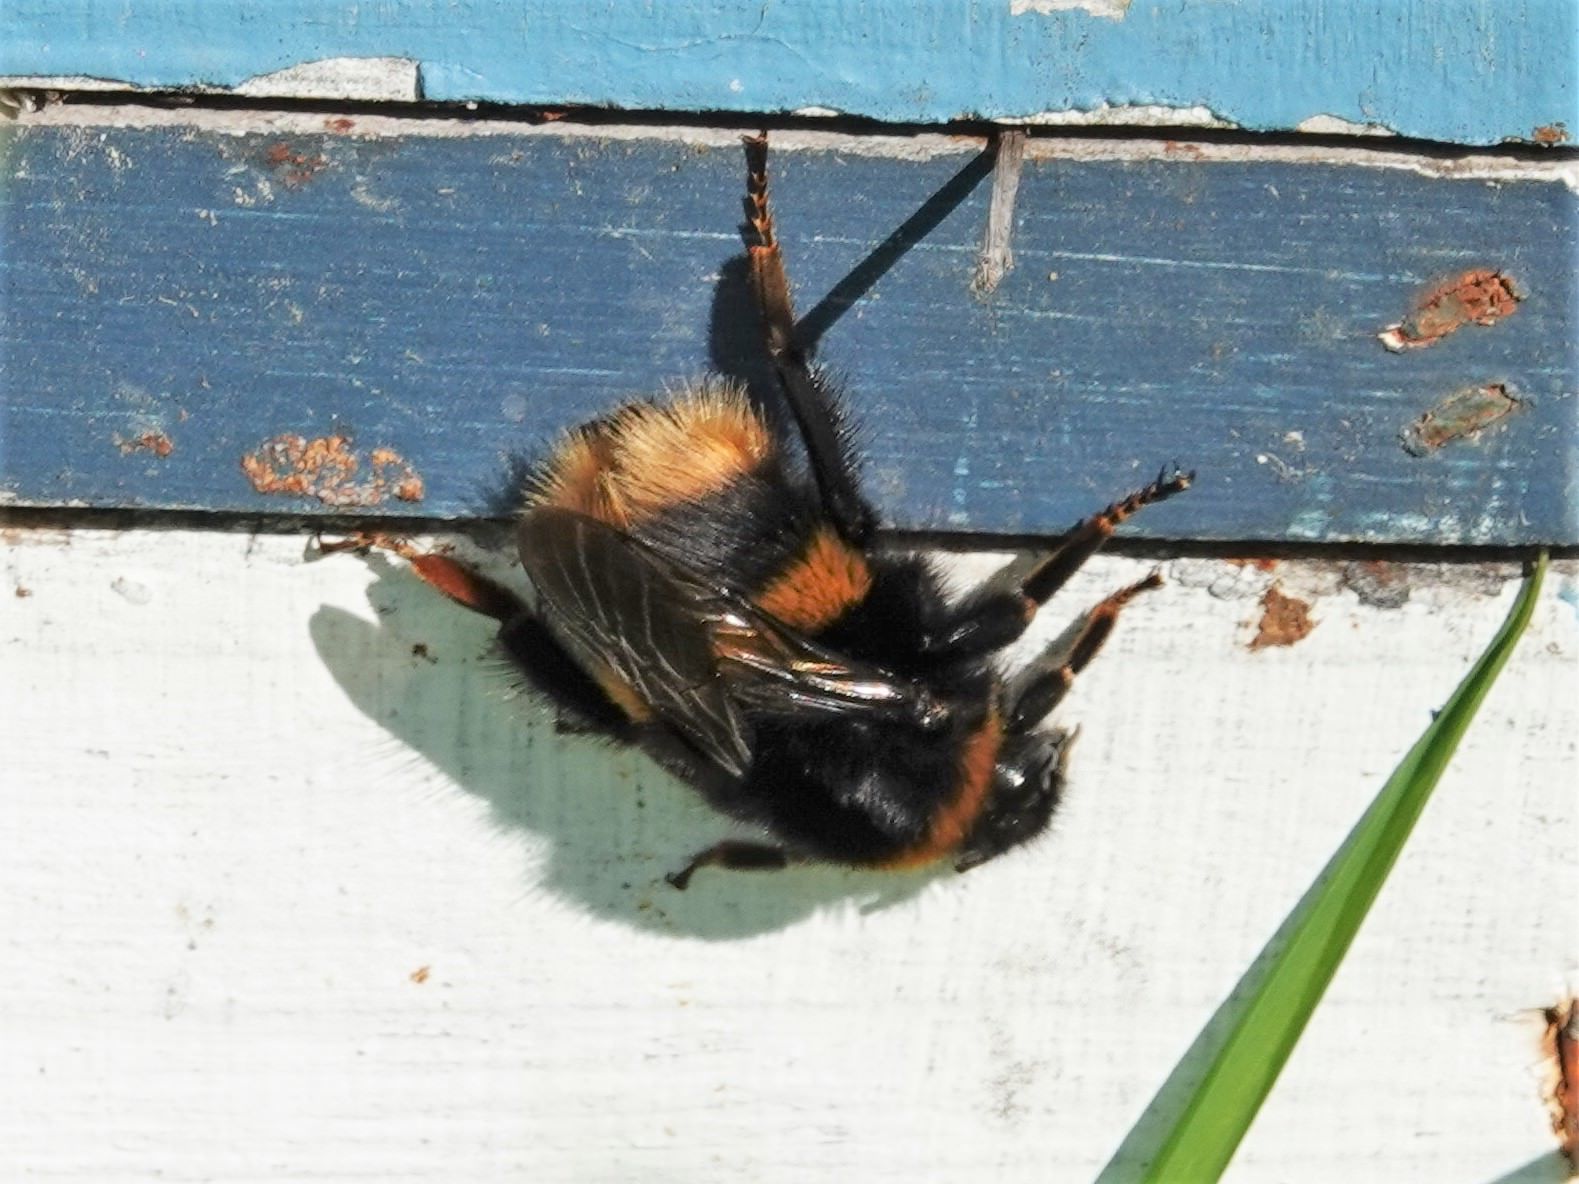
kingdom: Animalia
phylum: Arthropoda
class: Insecta
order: Hymenoptera
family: Apidae
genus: Bombus
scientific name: Bombus terrestris
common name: Buff-tailed bumblebee
